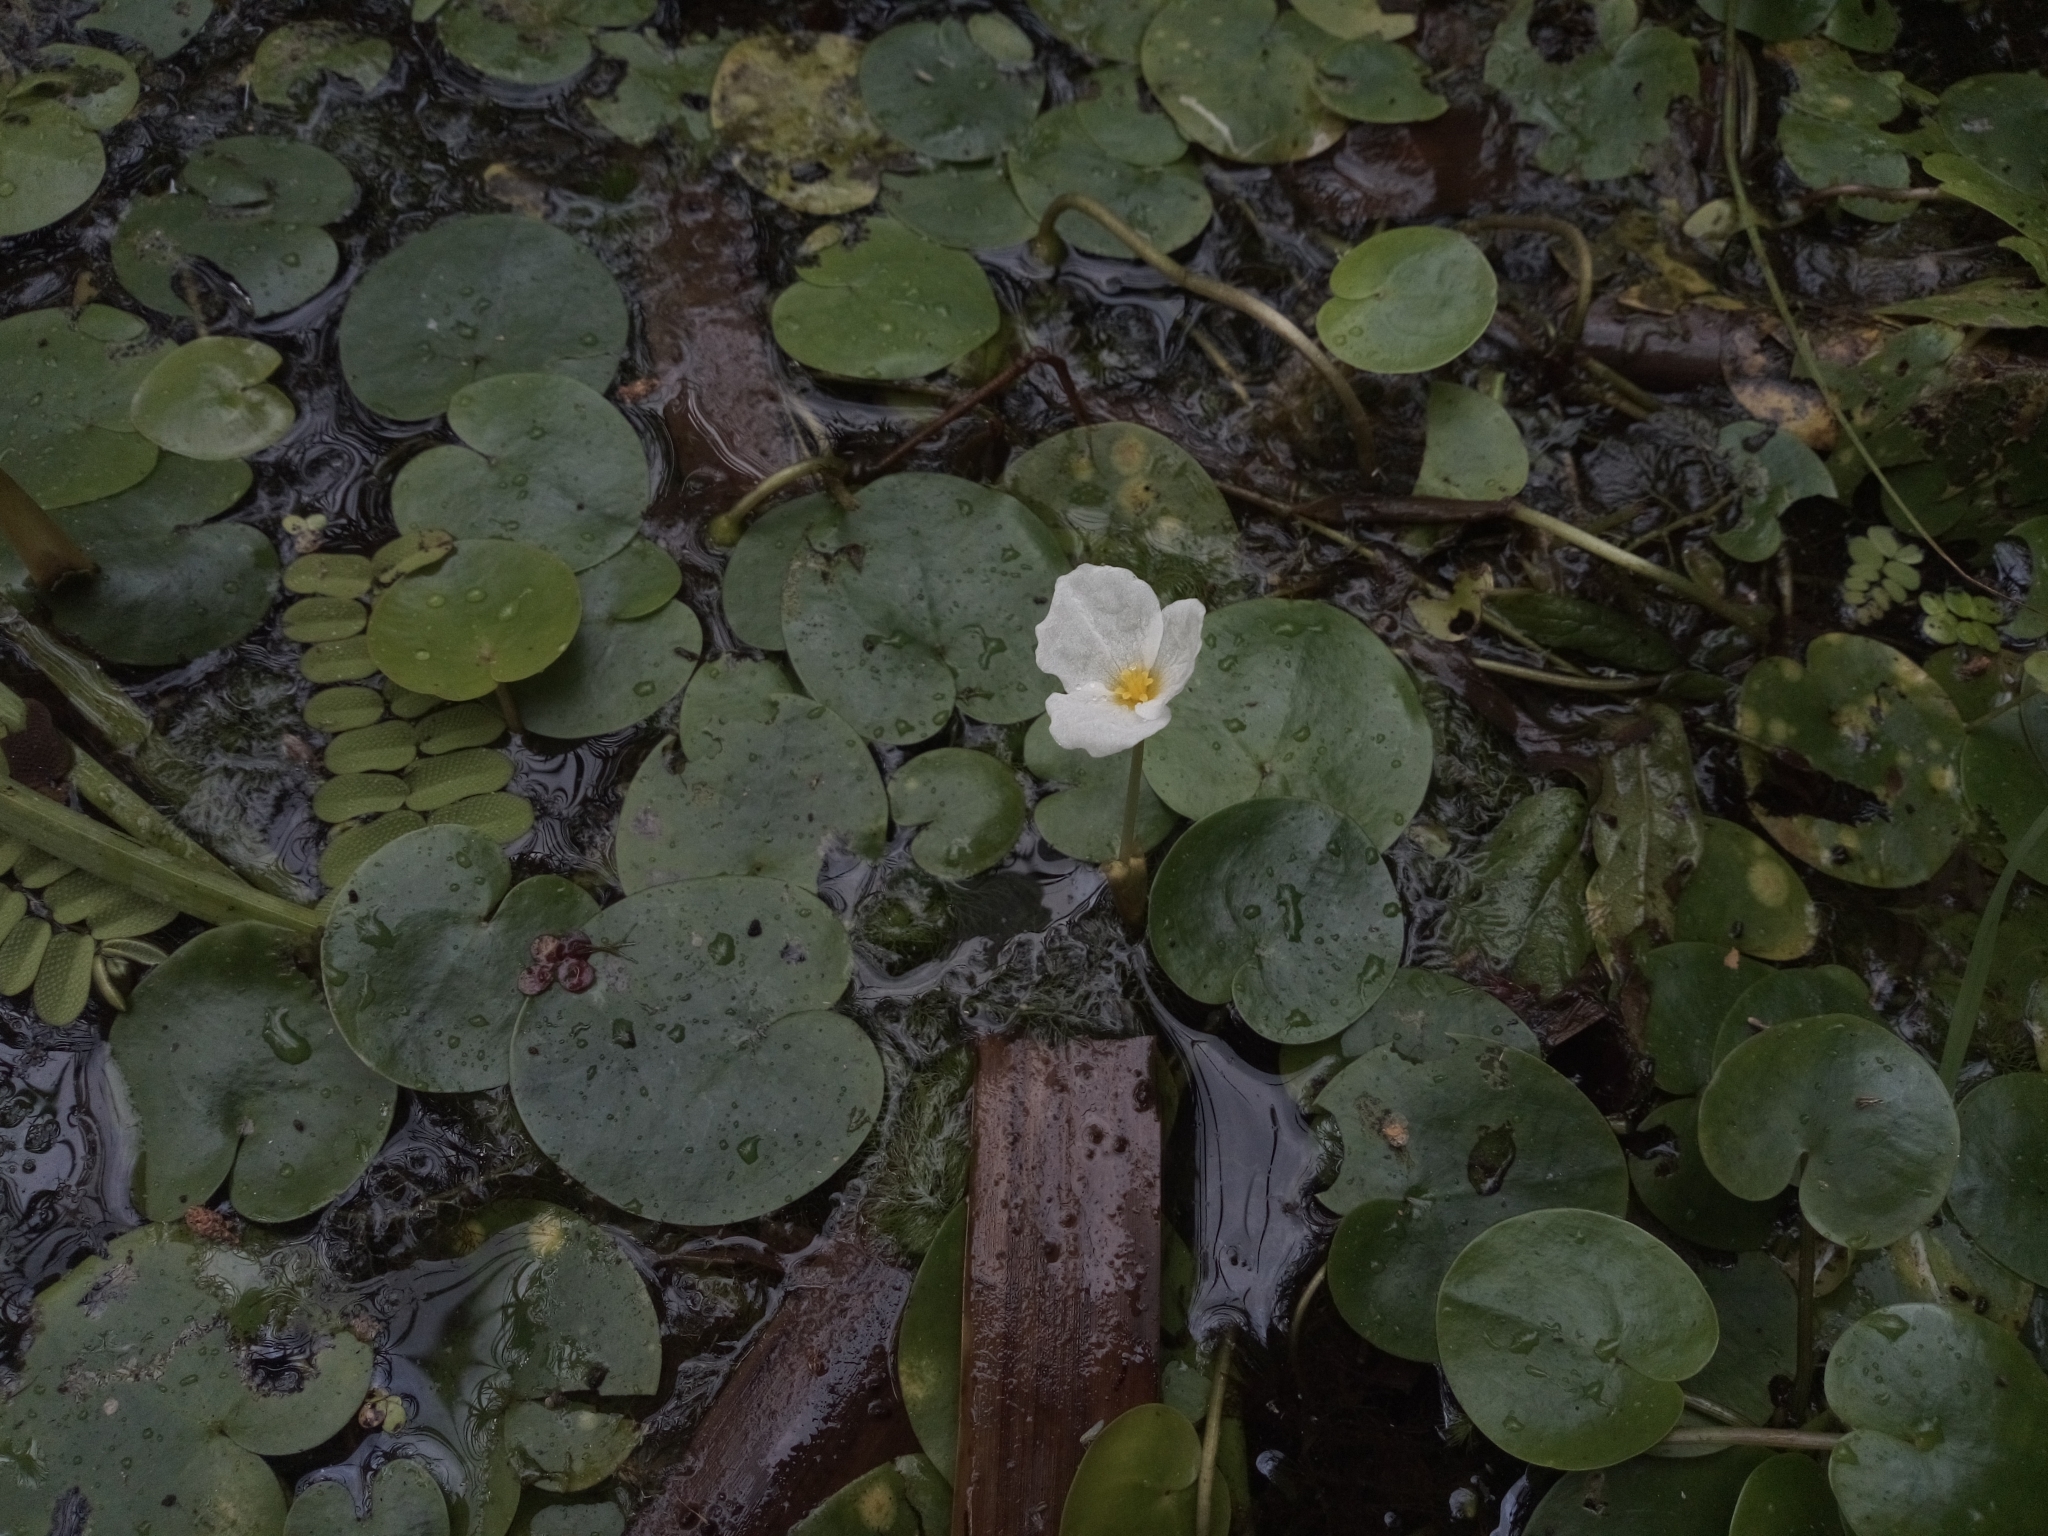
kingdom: Plantae
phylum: Tracheophyta
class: Liliopsida
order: Alismatales
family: Hydrocharitaceae
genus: Hydrocharis
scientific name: Hydrocharis morsus-ranae
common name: Frogbit
